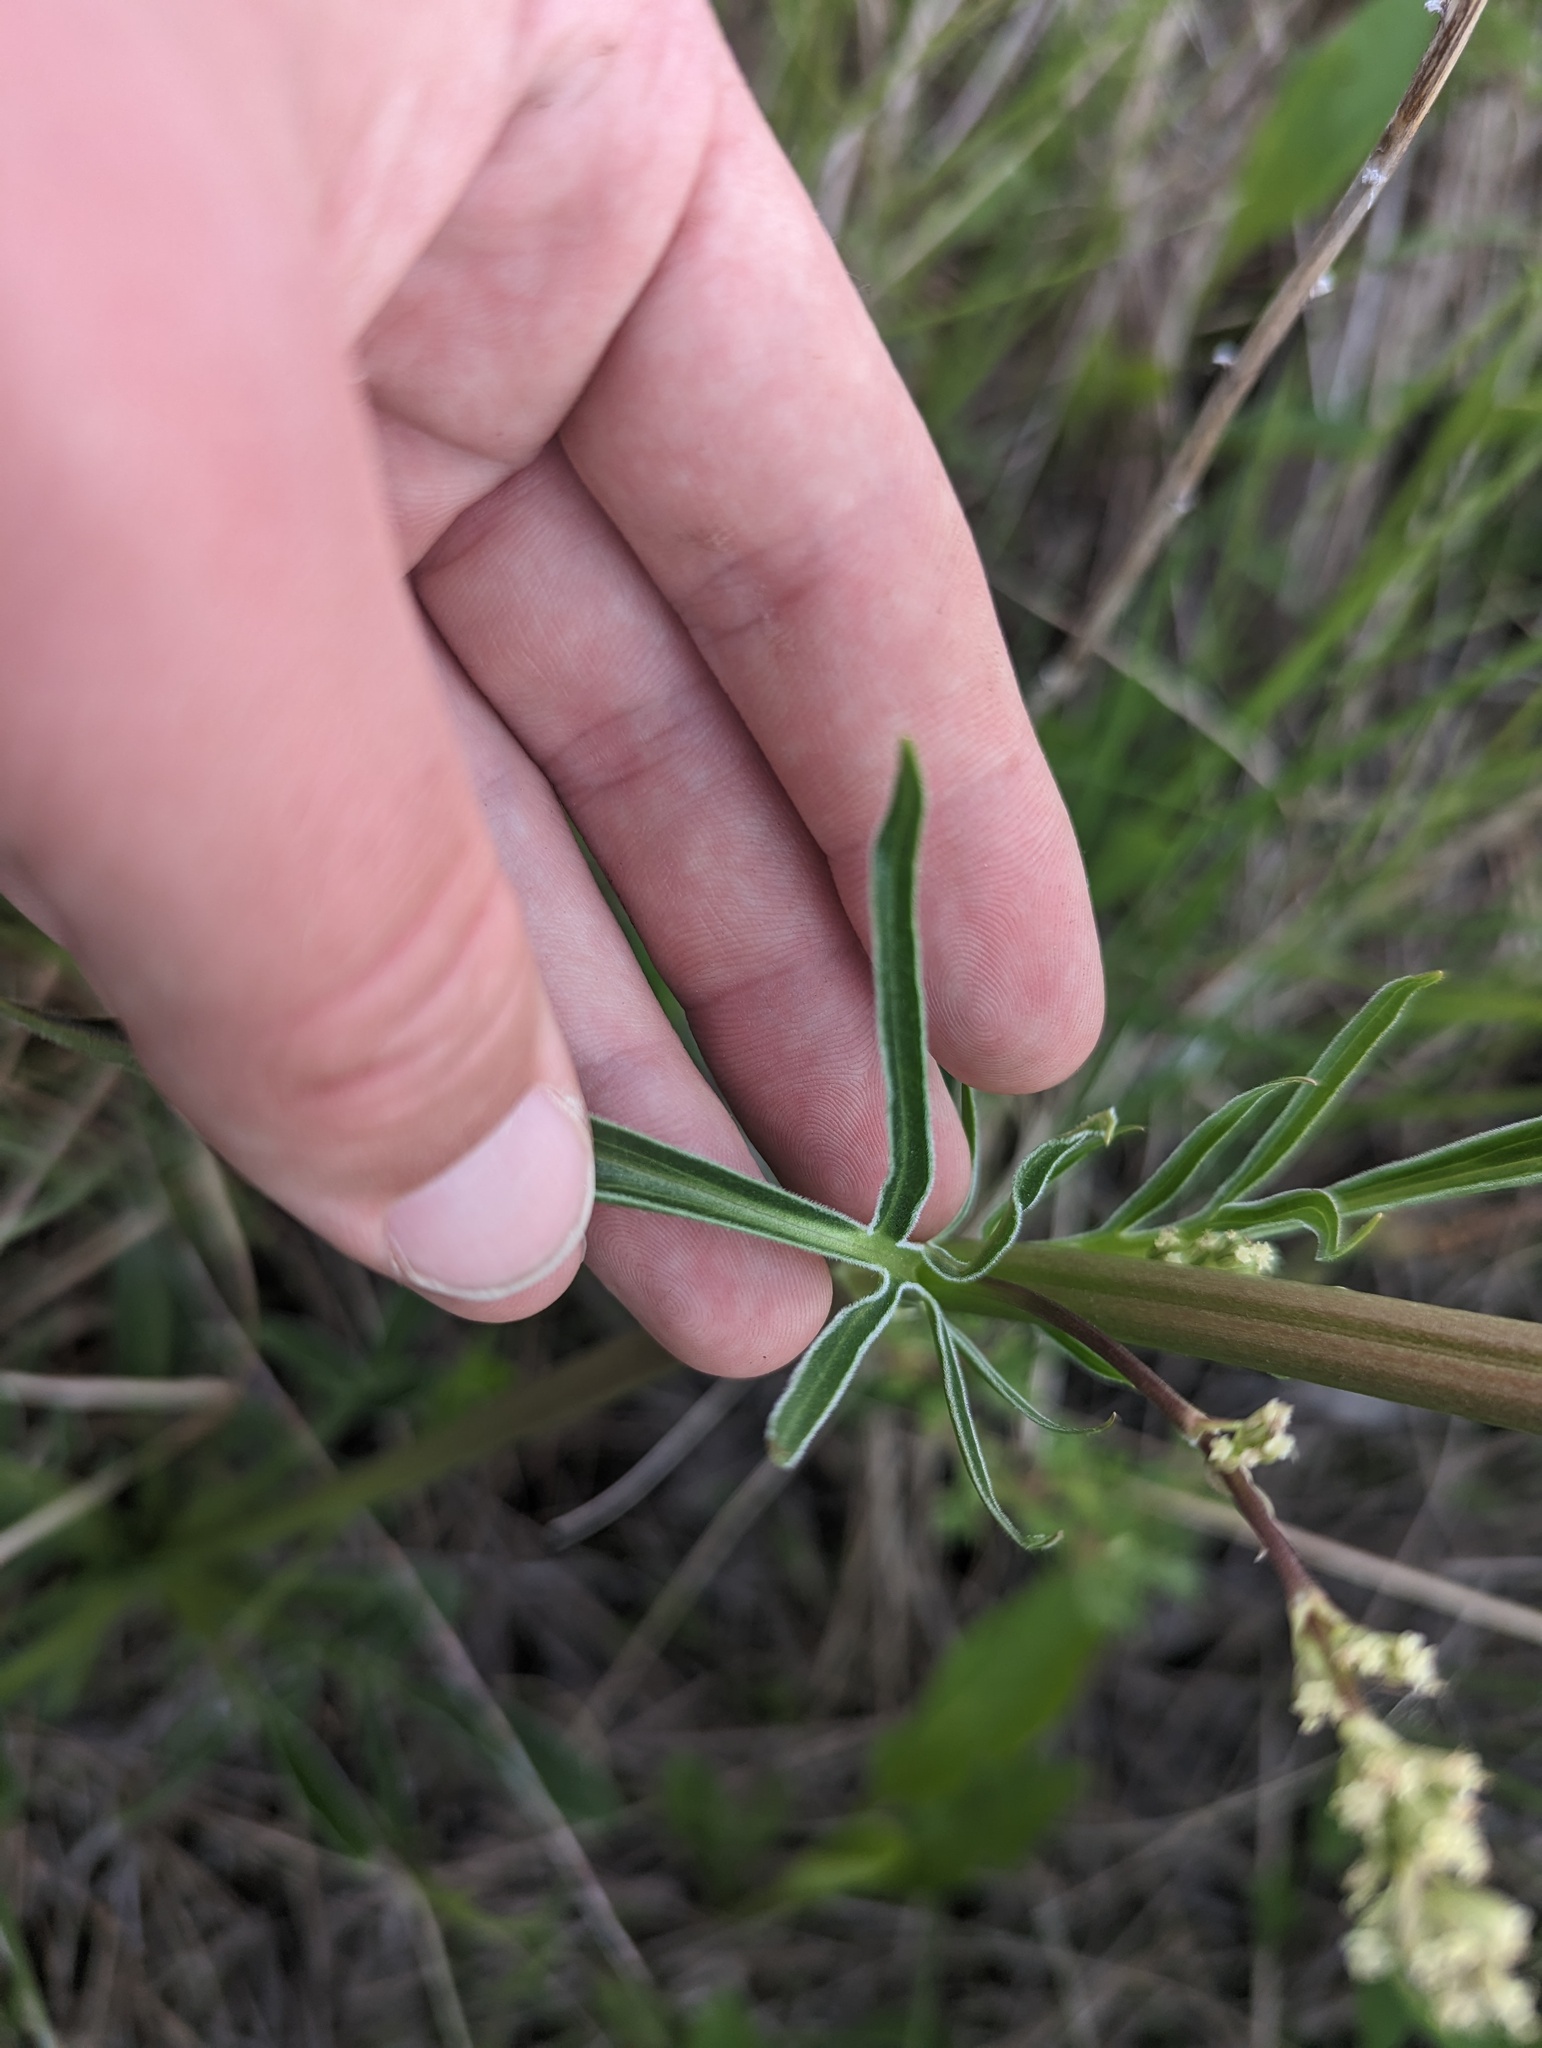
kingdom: Plantae
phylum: Tracheophyta
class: Magnoliopsida
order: Dipsacales
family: Caprifoliaceae
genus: Valeriana
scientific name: Valeriana edulis
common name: Taproot valerian
